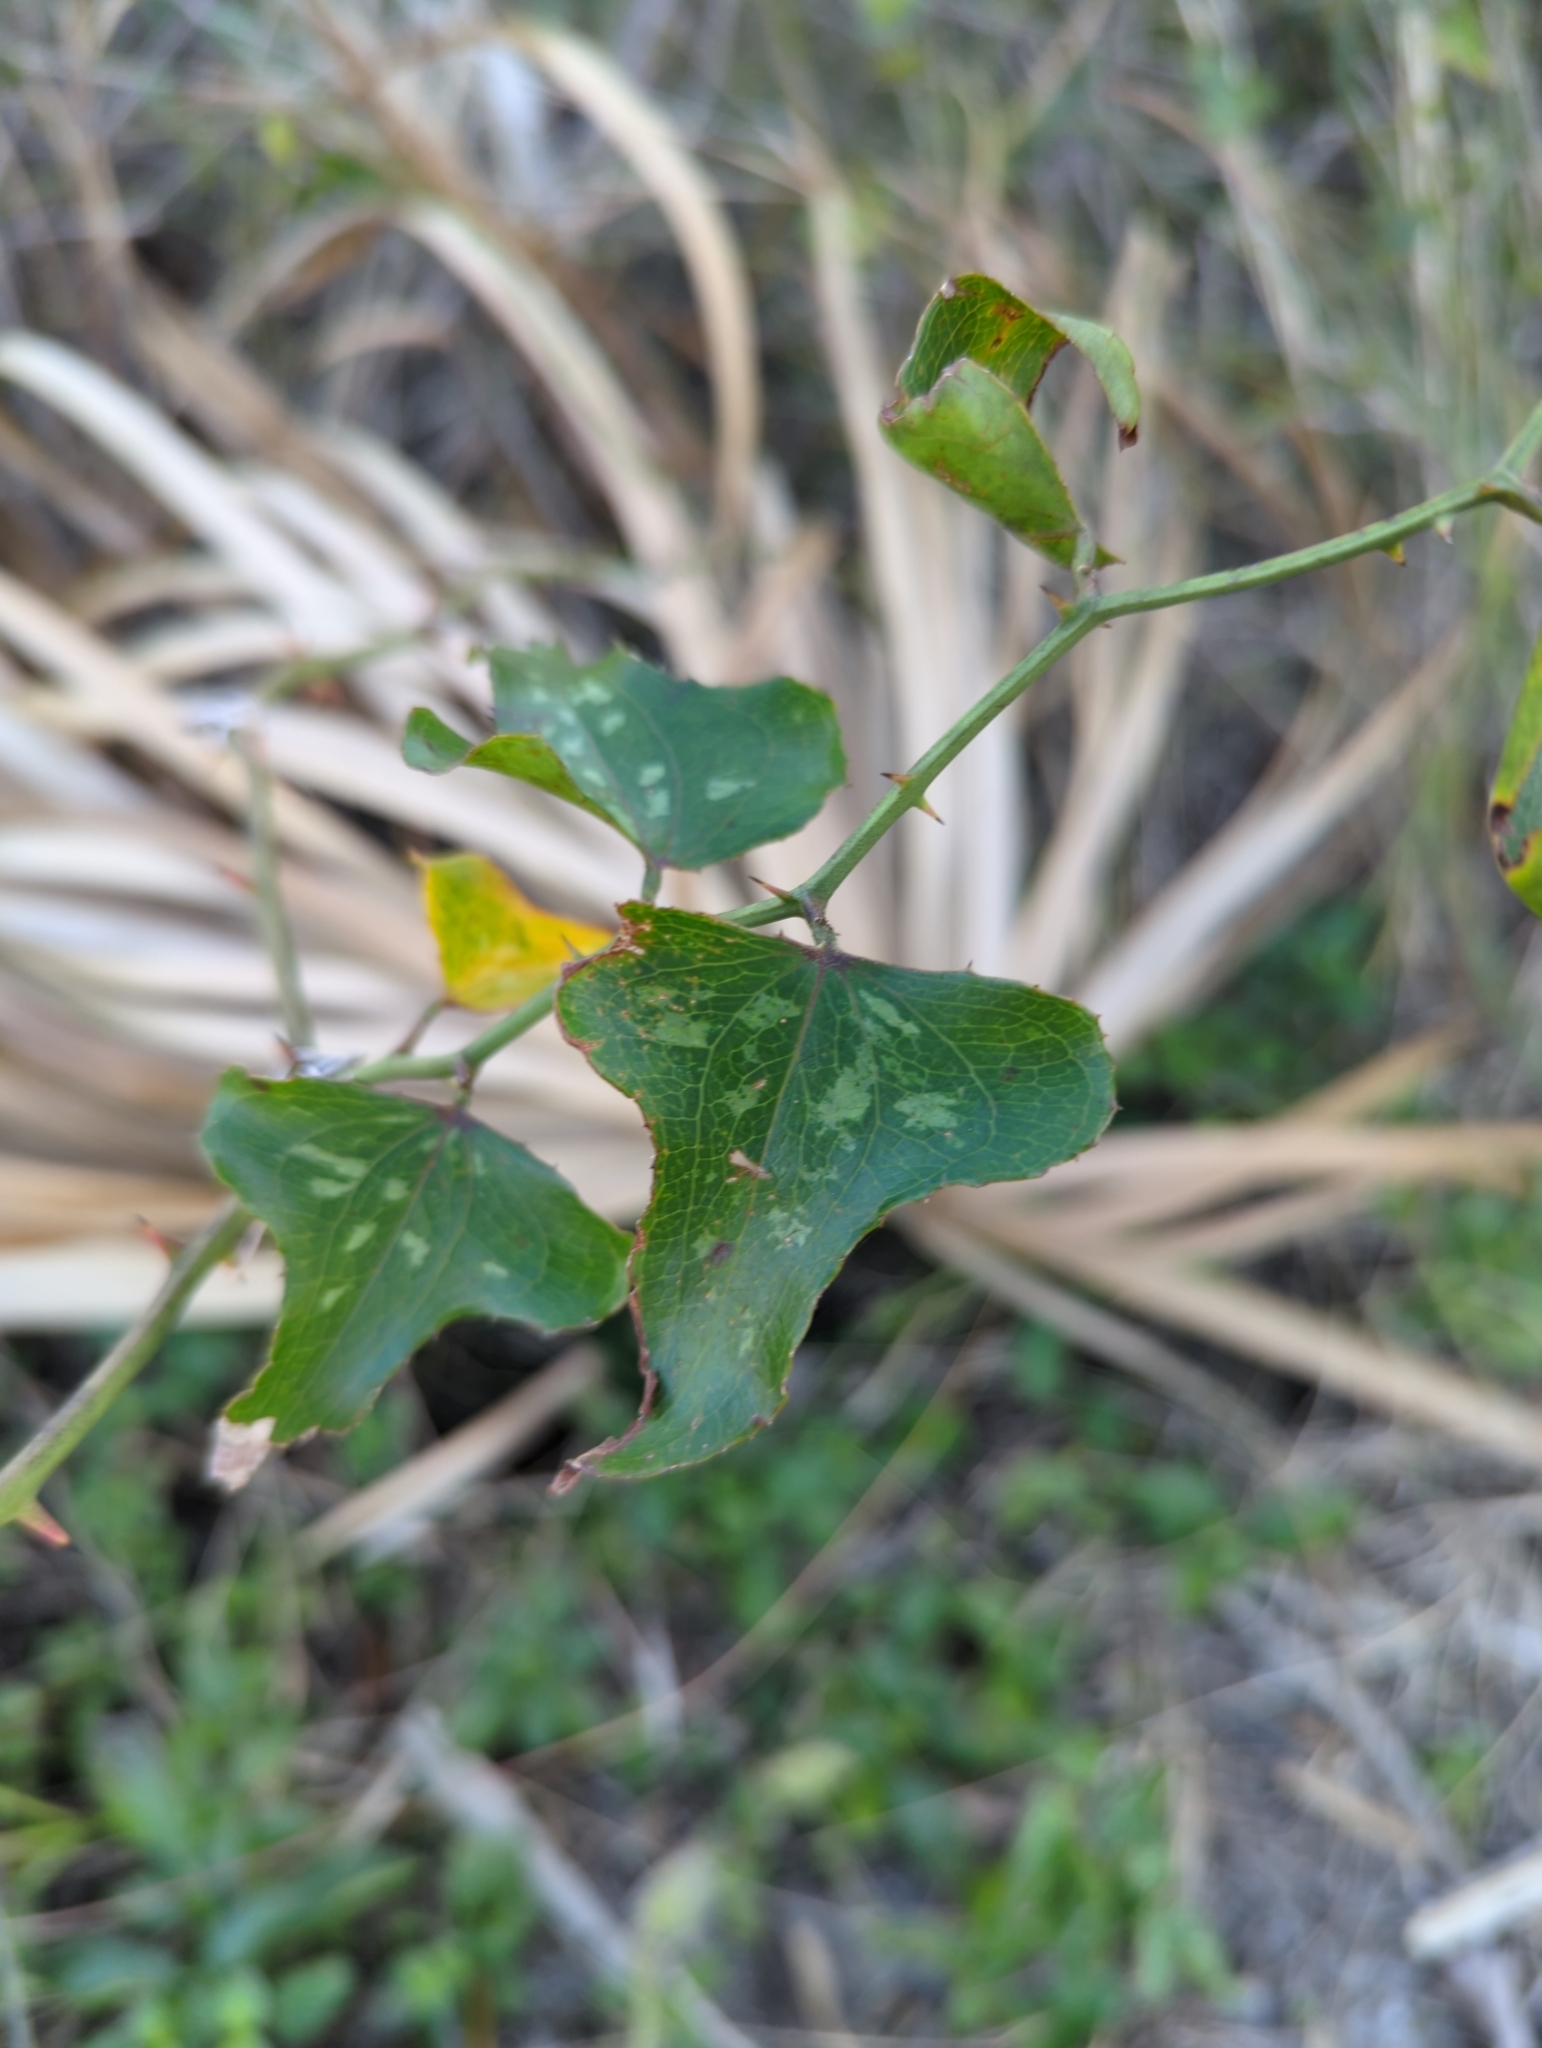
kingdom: Plantae
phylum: Tracheophyta
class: Liliopsida
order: Liliales
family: Smilacaceae
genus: Smilax
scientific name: Smilax bona-nox
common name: Catbrier
